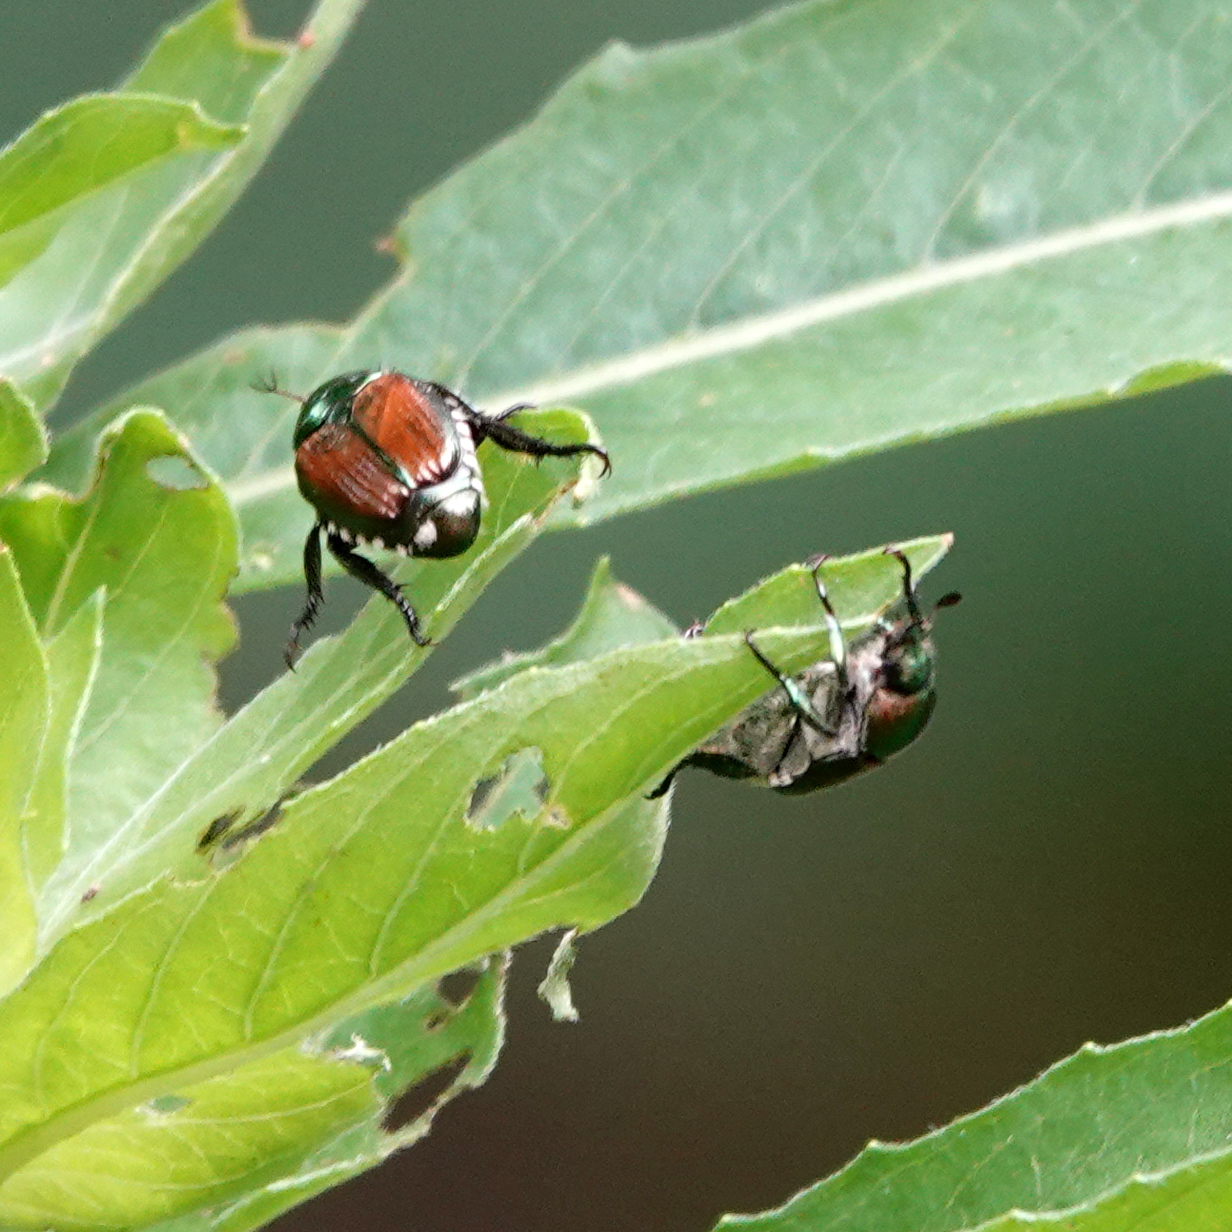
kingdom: Animalia
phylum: Arthropoda
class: Insecta
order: Coleoptera
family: Scarabaeidae
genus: Popillia
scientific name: Popillia japonica
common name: Japanese beetle
